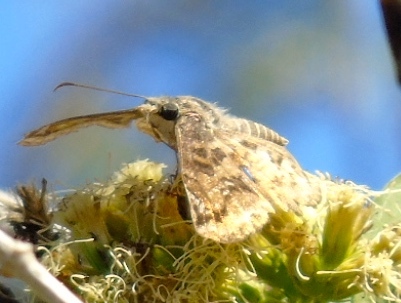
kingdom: Animalia
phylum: Arthropoda
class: Insecta
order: Lepidoptera
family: Hesperiidae
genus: Antigonus
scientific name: Antigonus erosus
